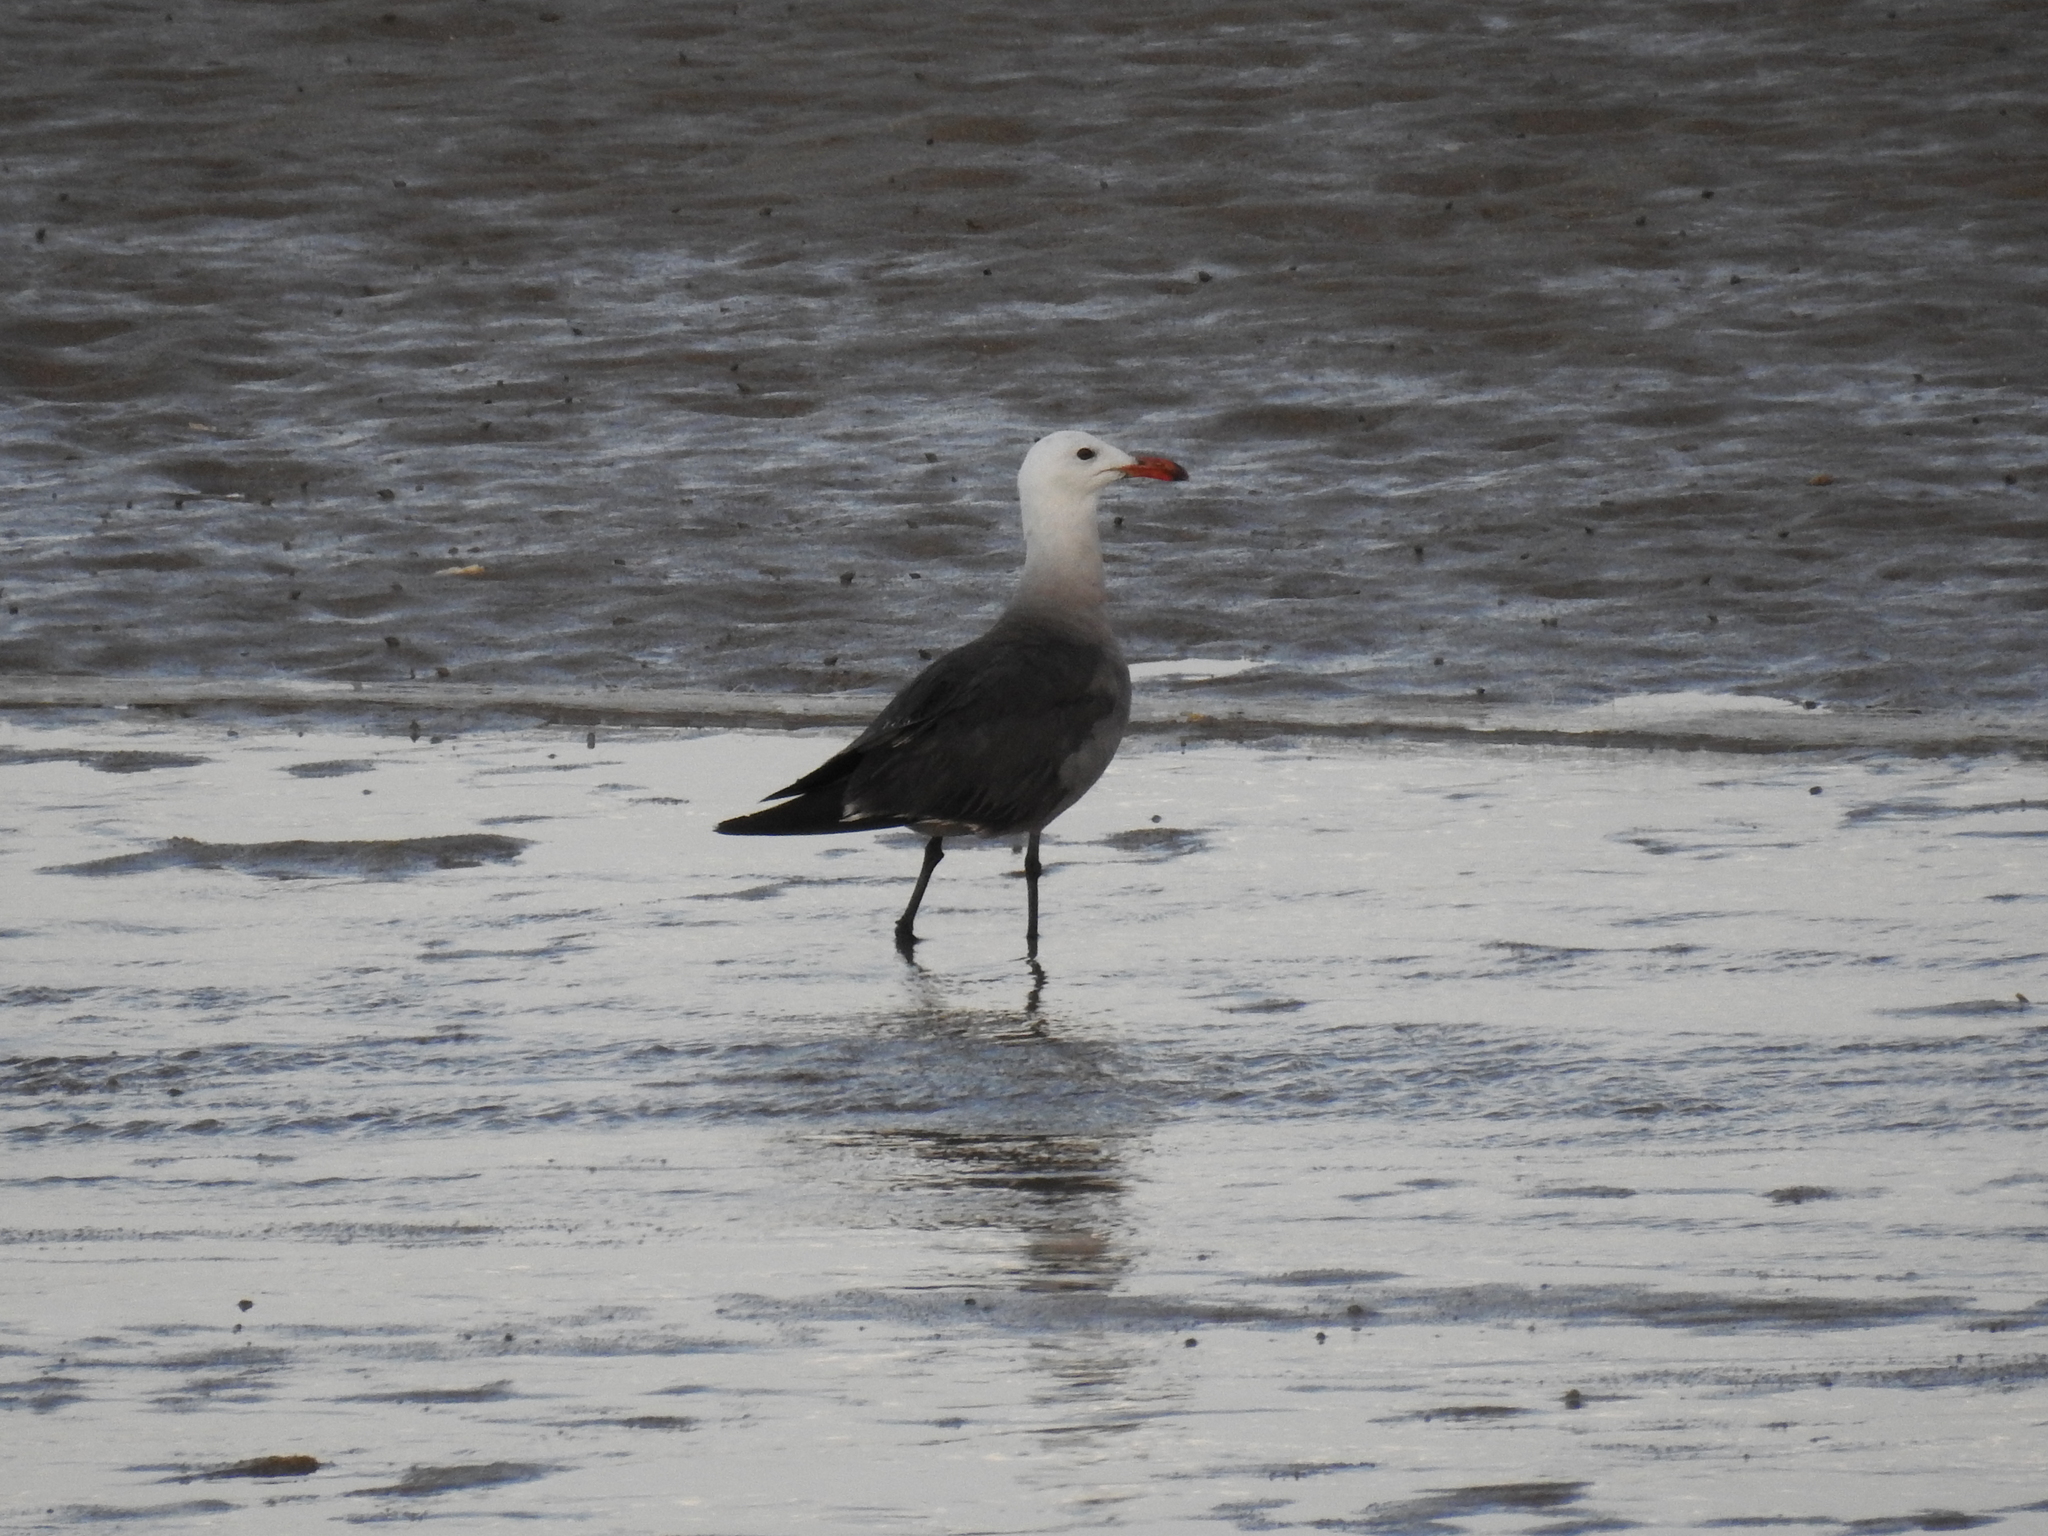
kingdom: Animalia
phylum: Chordata
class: Aves
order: Charadriiformes
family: Laridae
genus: Larus
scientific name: Larus heermanni
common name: Heermann's gull
